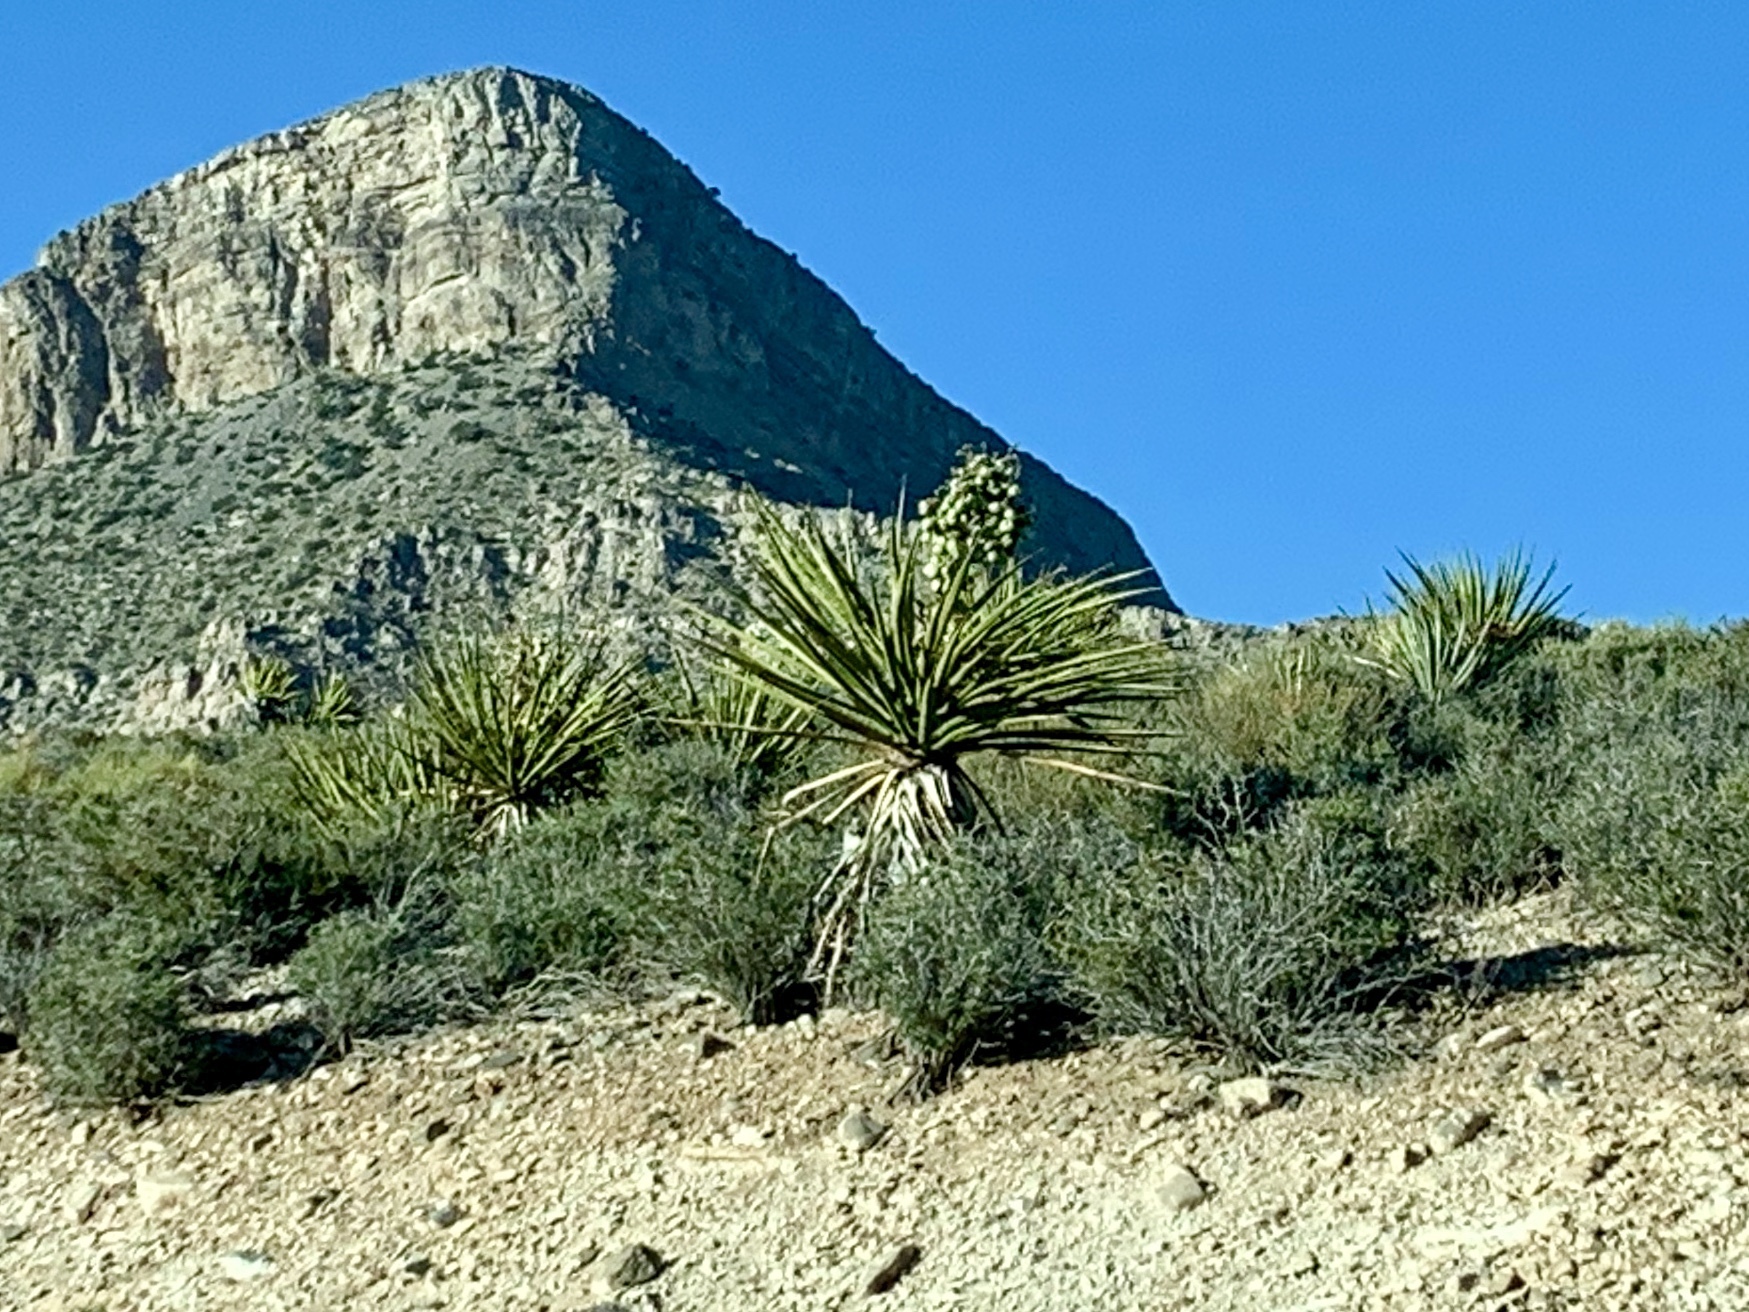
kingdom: Plantae
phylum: Tracheophyta
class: Liliopsida
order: Asparagales
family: Asparagaceae
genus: Yucca
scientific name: Yucca schidigera
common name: Mojave yucca
